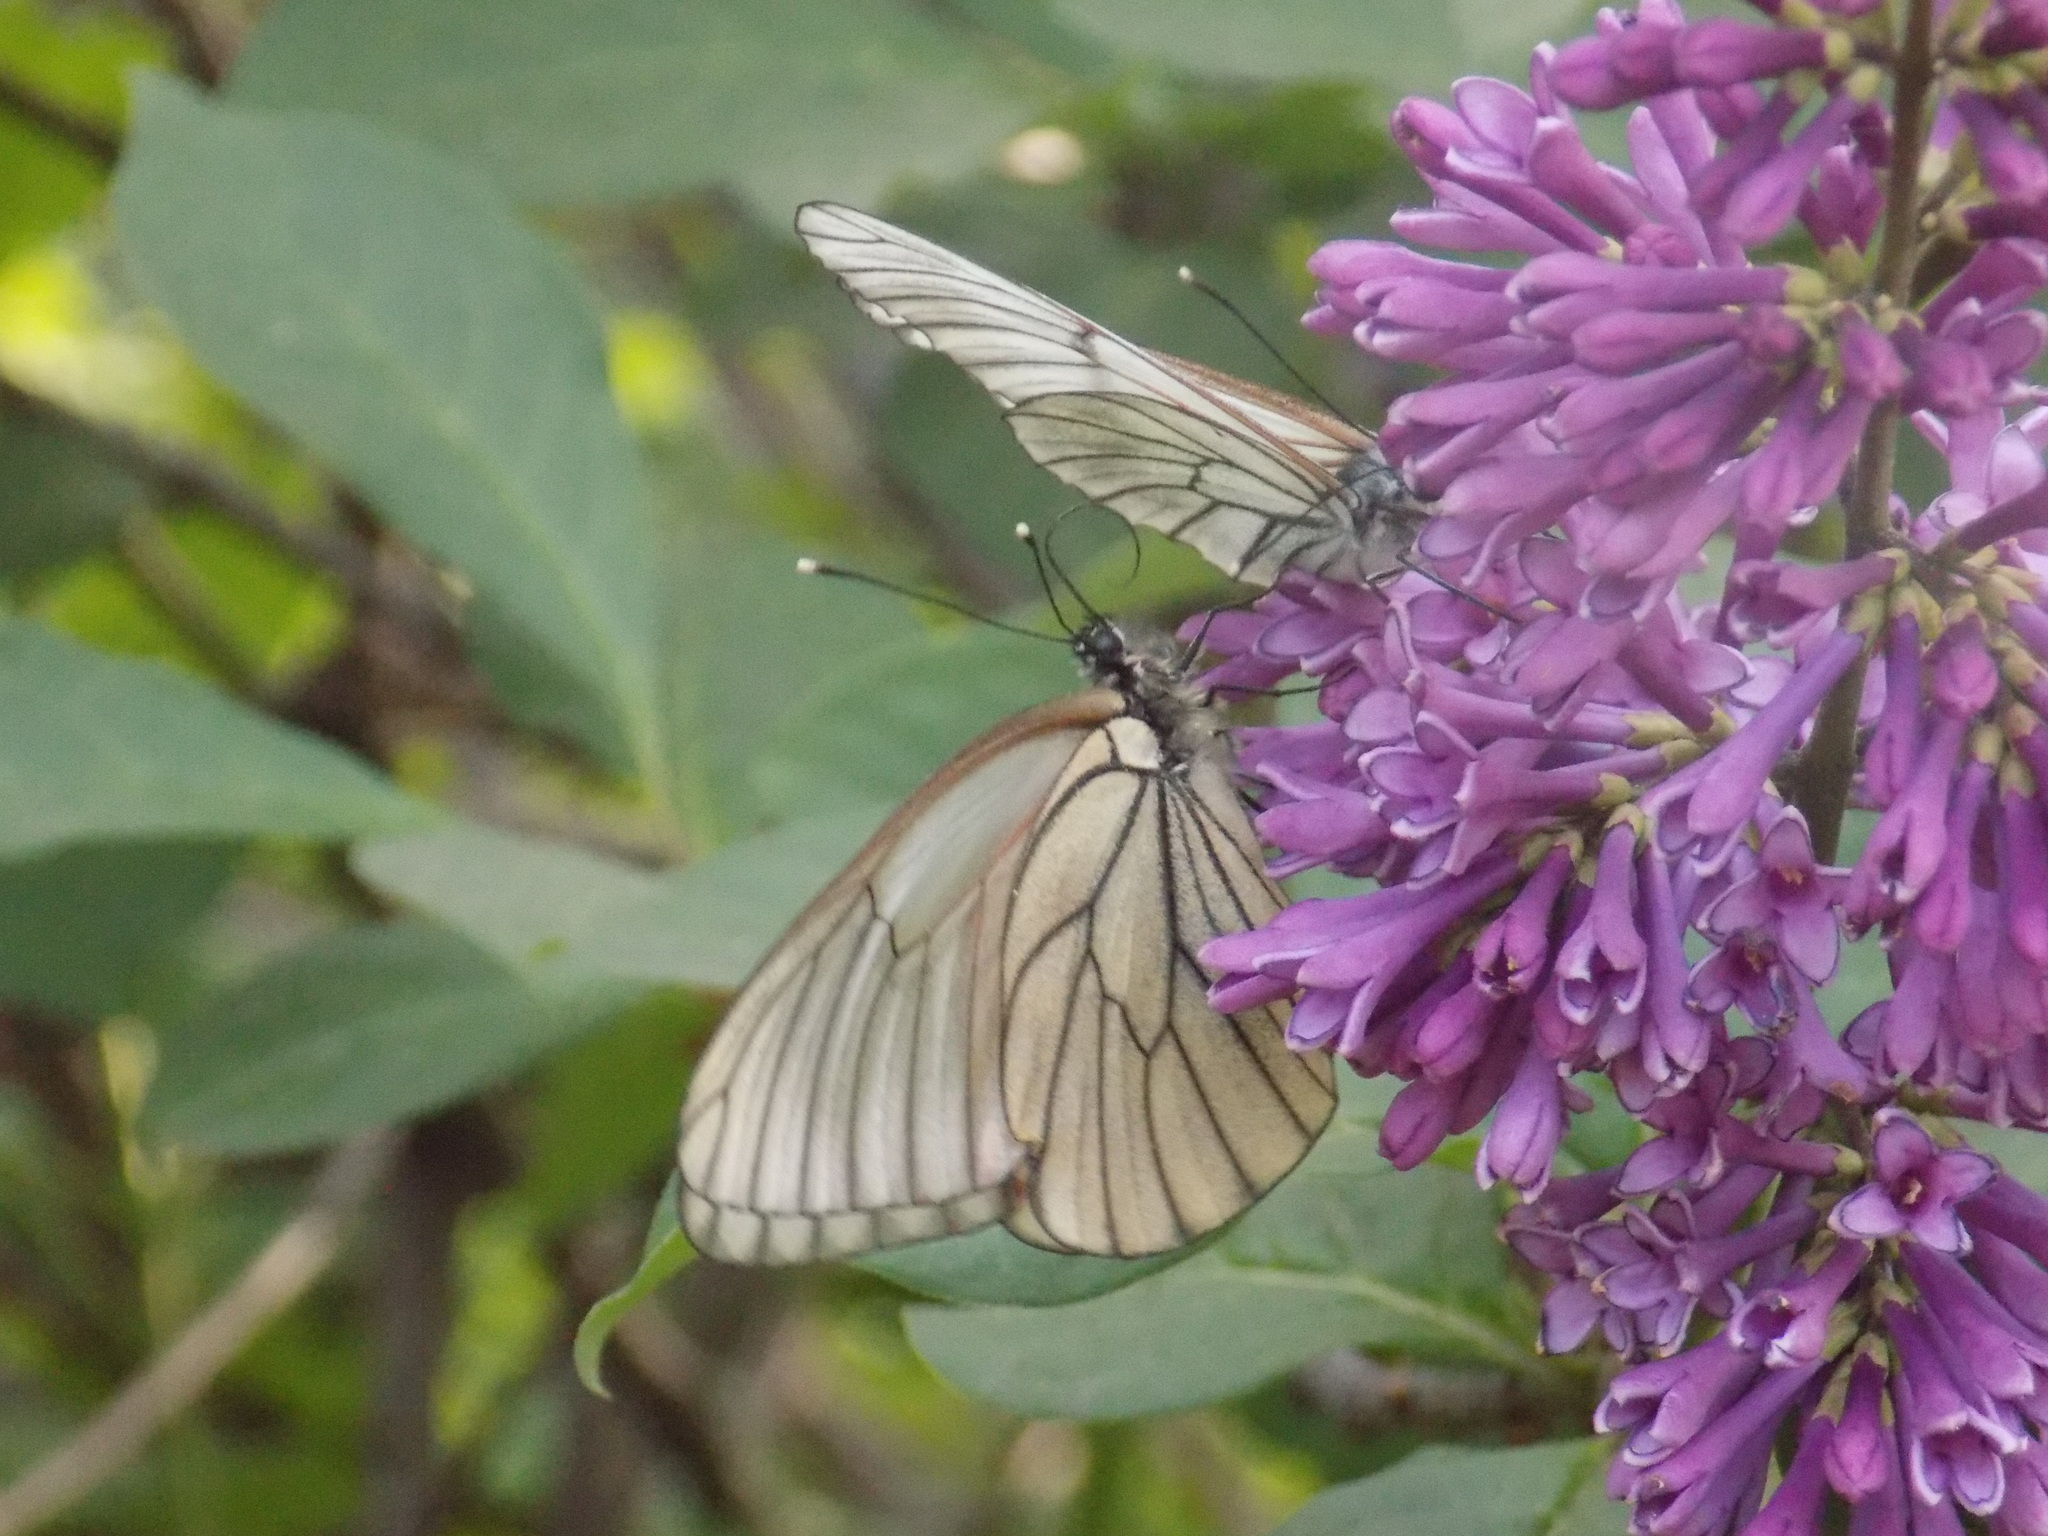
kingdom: Animalia
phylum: Arthropoda
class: Insecta
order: Lepidoptera
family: Pieridae
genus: Aporia
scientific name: Aporia crataegi
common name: Black-veined white
